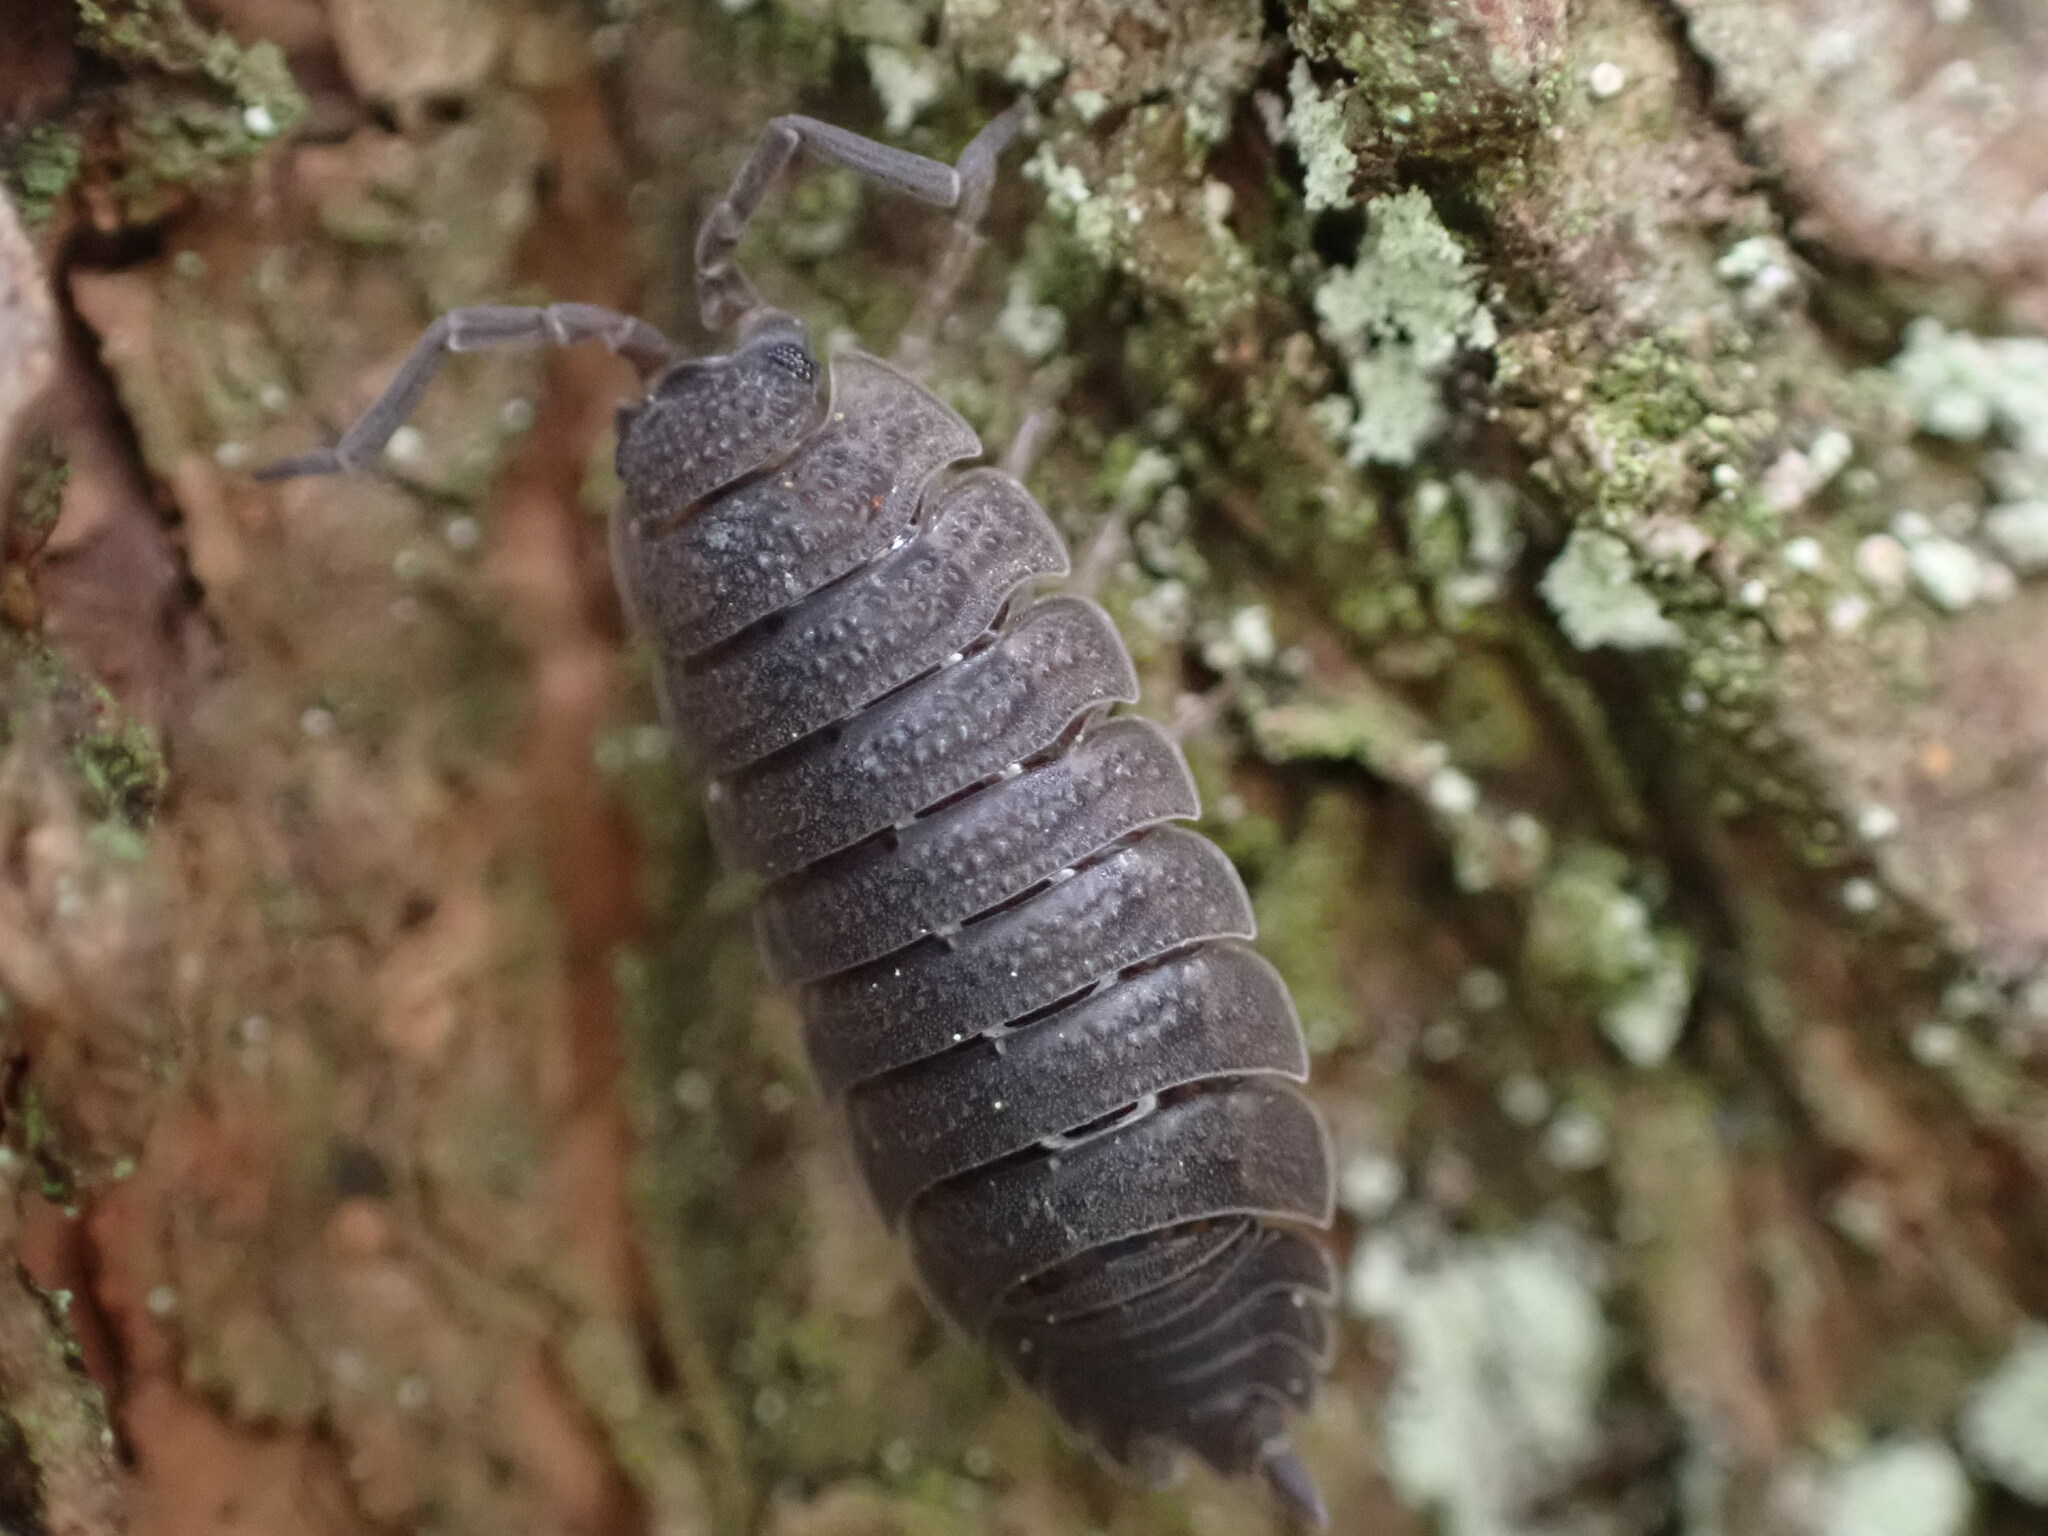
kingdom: Animalia
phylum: Arthropoda
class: Malacostraca
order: Isopoda
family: Porcellionidae
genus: Porcellio
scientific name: Porcellio scaber
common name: Common rough woodlouse
